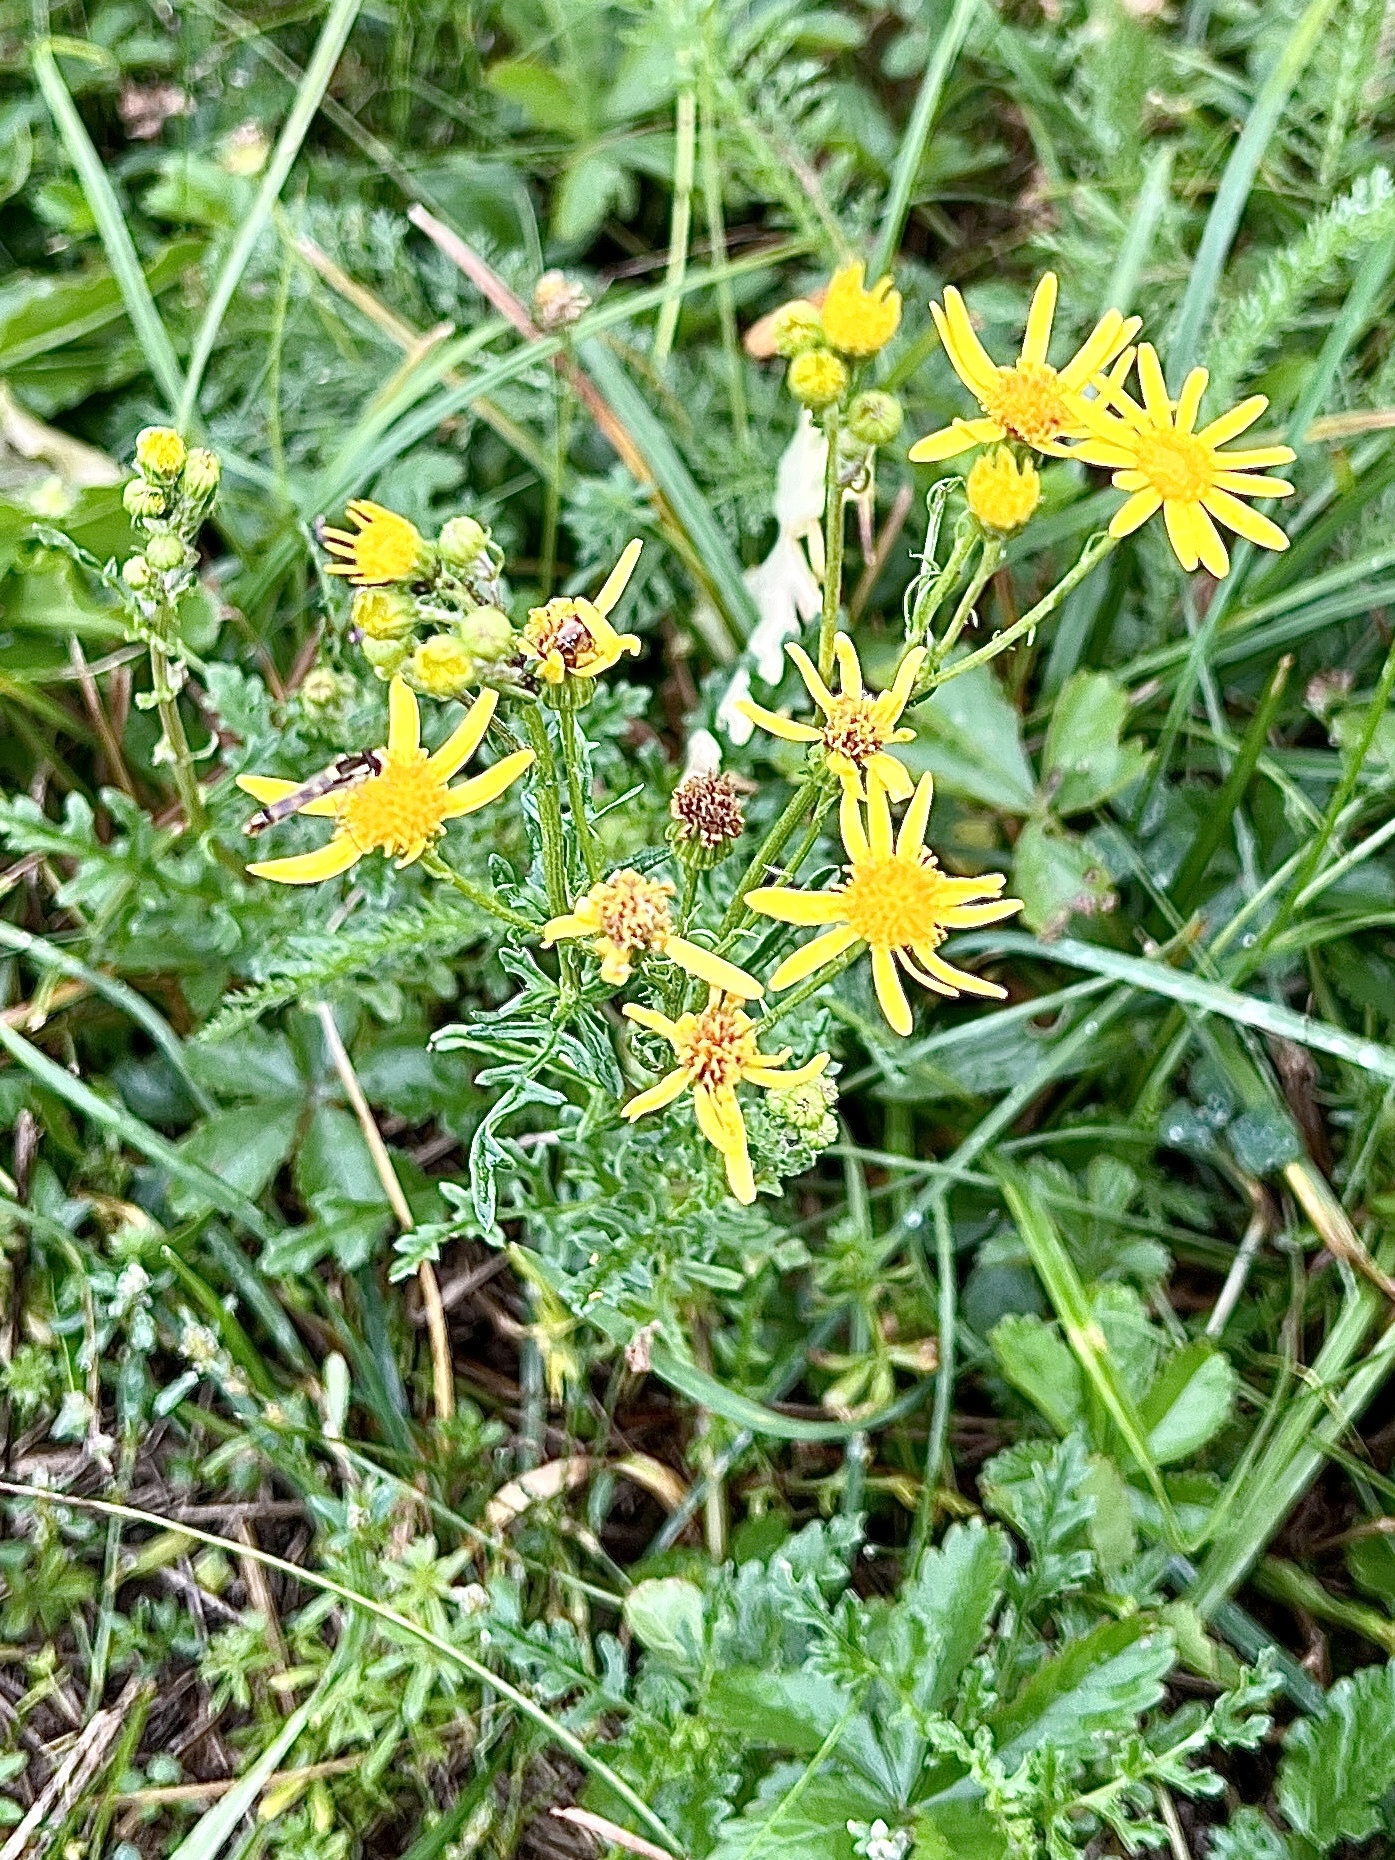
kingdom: Plantae
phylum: Tracheophyta
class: Magnoliopsida
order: Asterales
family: Asteraceae
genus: Jacobaea
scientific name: Jacobaea vulgaris
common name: Stinking willie
